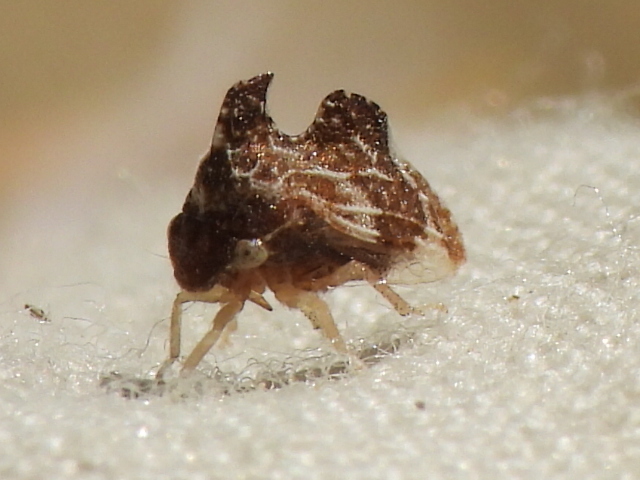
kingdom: Animalia
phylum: Arthropoda
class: Insecta
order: Hemiptera
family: Membracidae
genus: Entylia
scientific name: Entylia carinata
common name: Keeled treehopper
